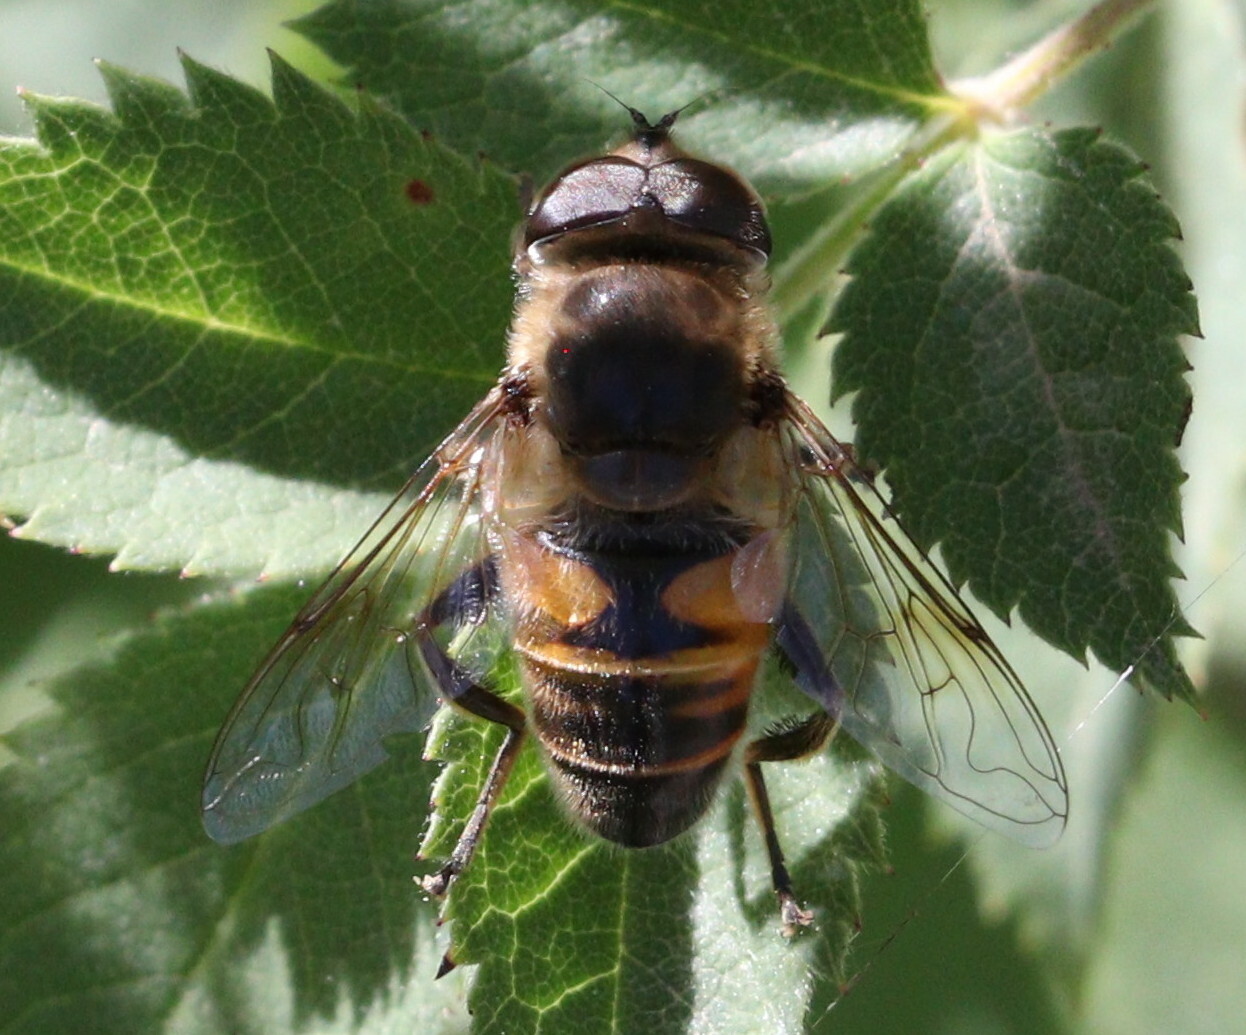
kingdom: Animalia
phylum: Arthropoda
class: Insecta
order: Diptera
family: Syrphidae
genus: Eristalis
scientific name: Eristalis tenax
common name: Drone fly
